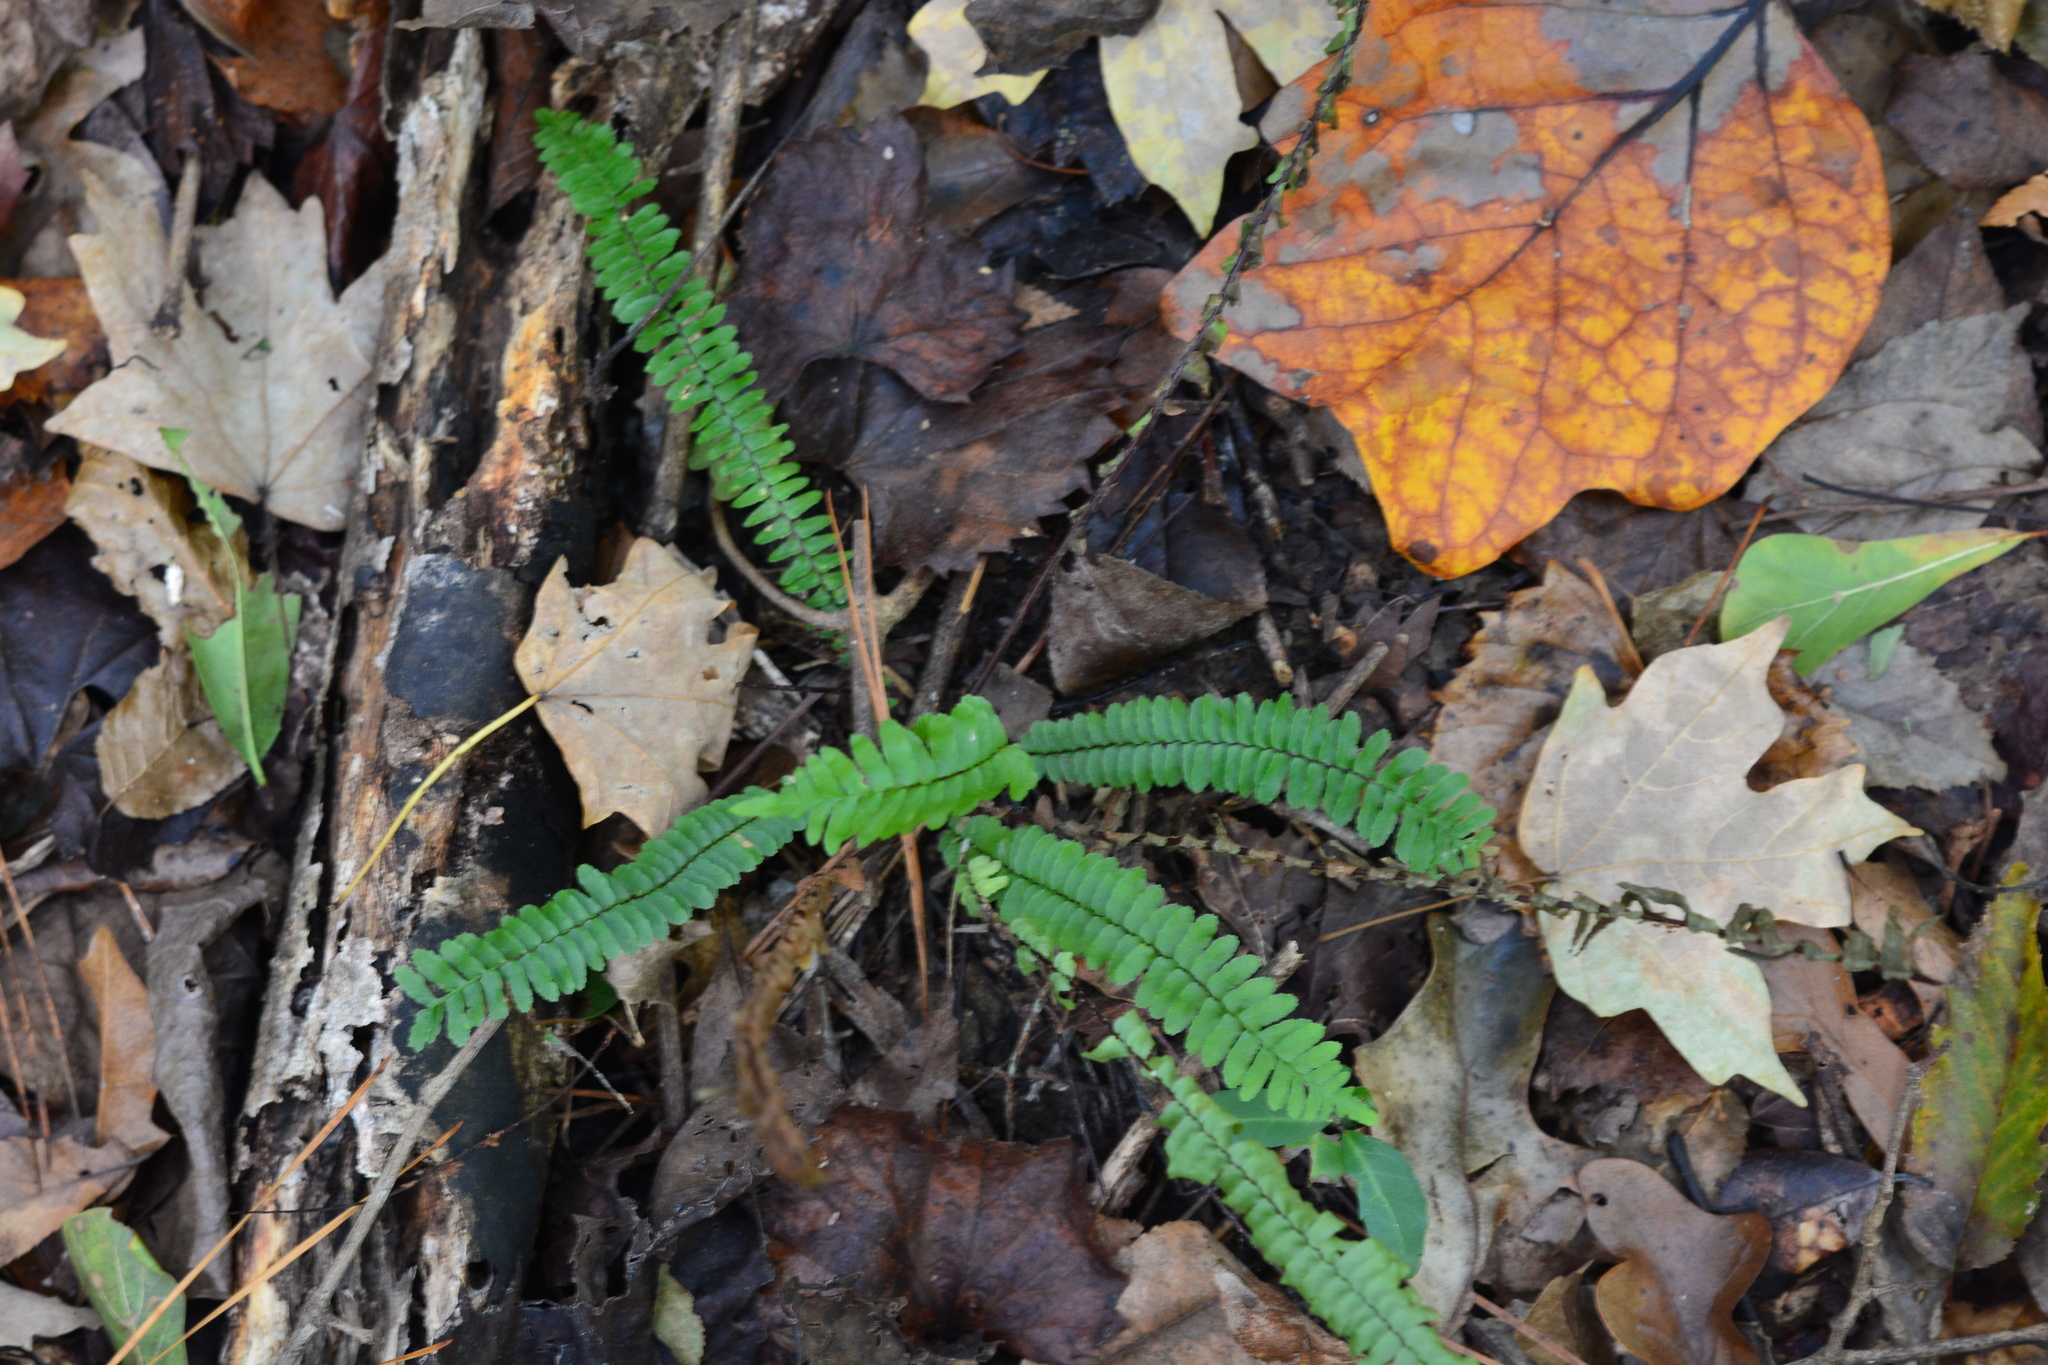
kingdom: Plantae
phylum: Tracheophyta
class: Polypodiopsida
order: Polypodiales
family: Aspleniaceae
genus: Asplenium
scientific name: Asplenium platyneuron
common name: Ebony spleenwort
